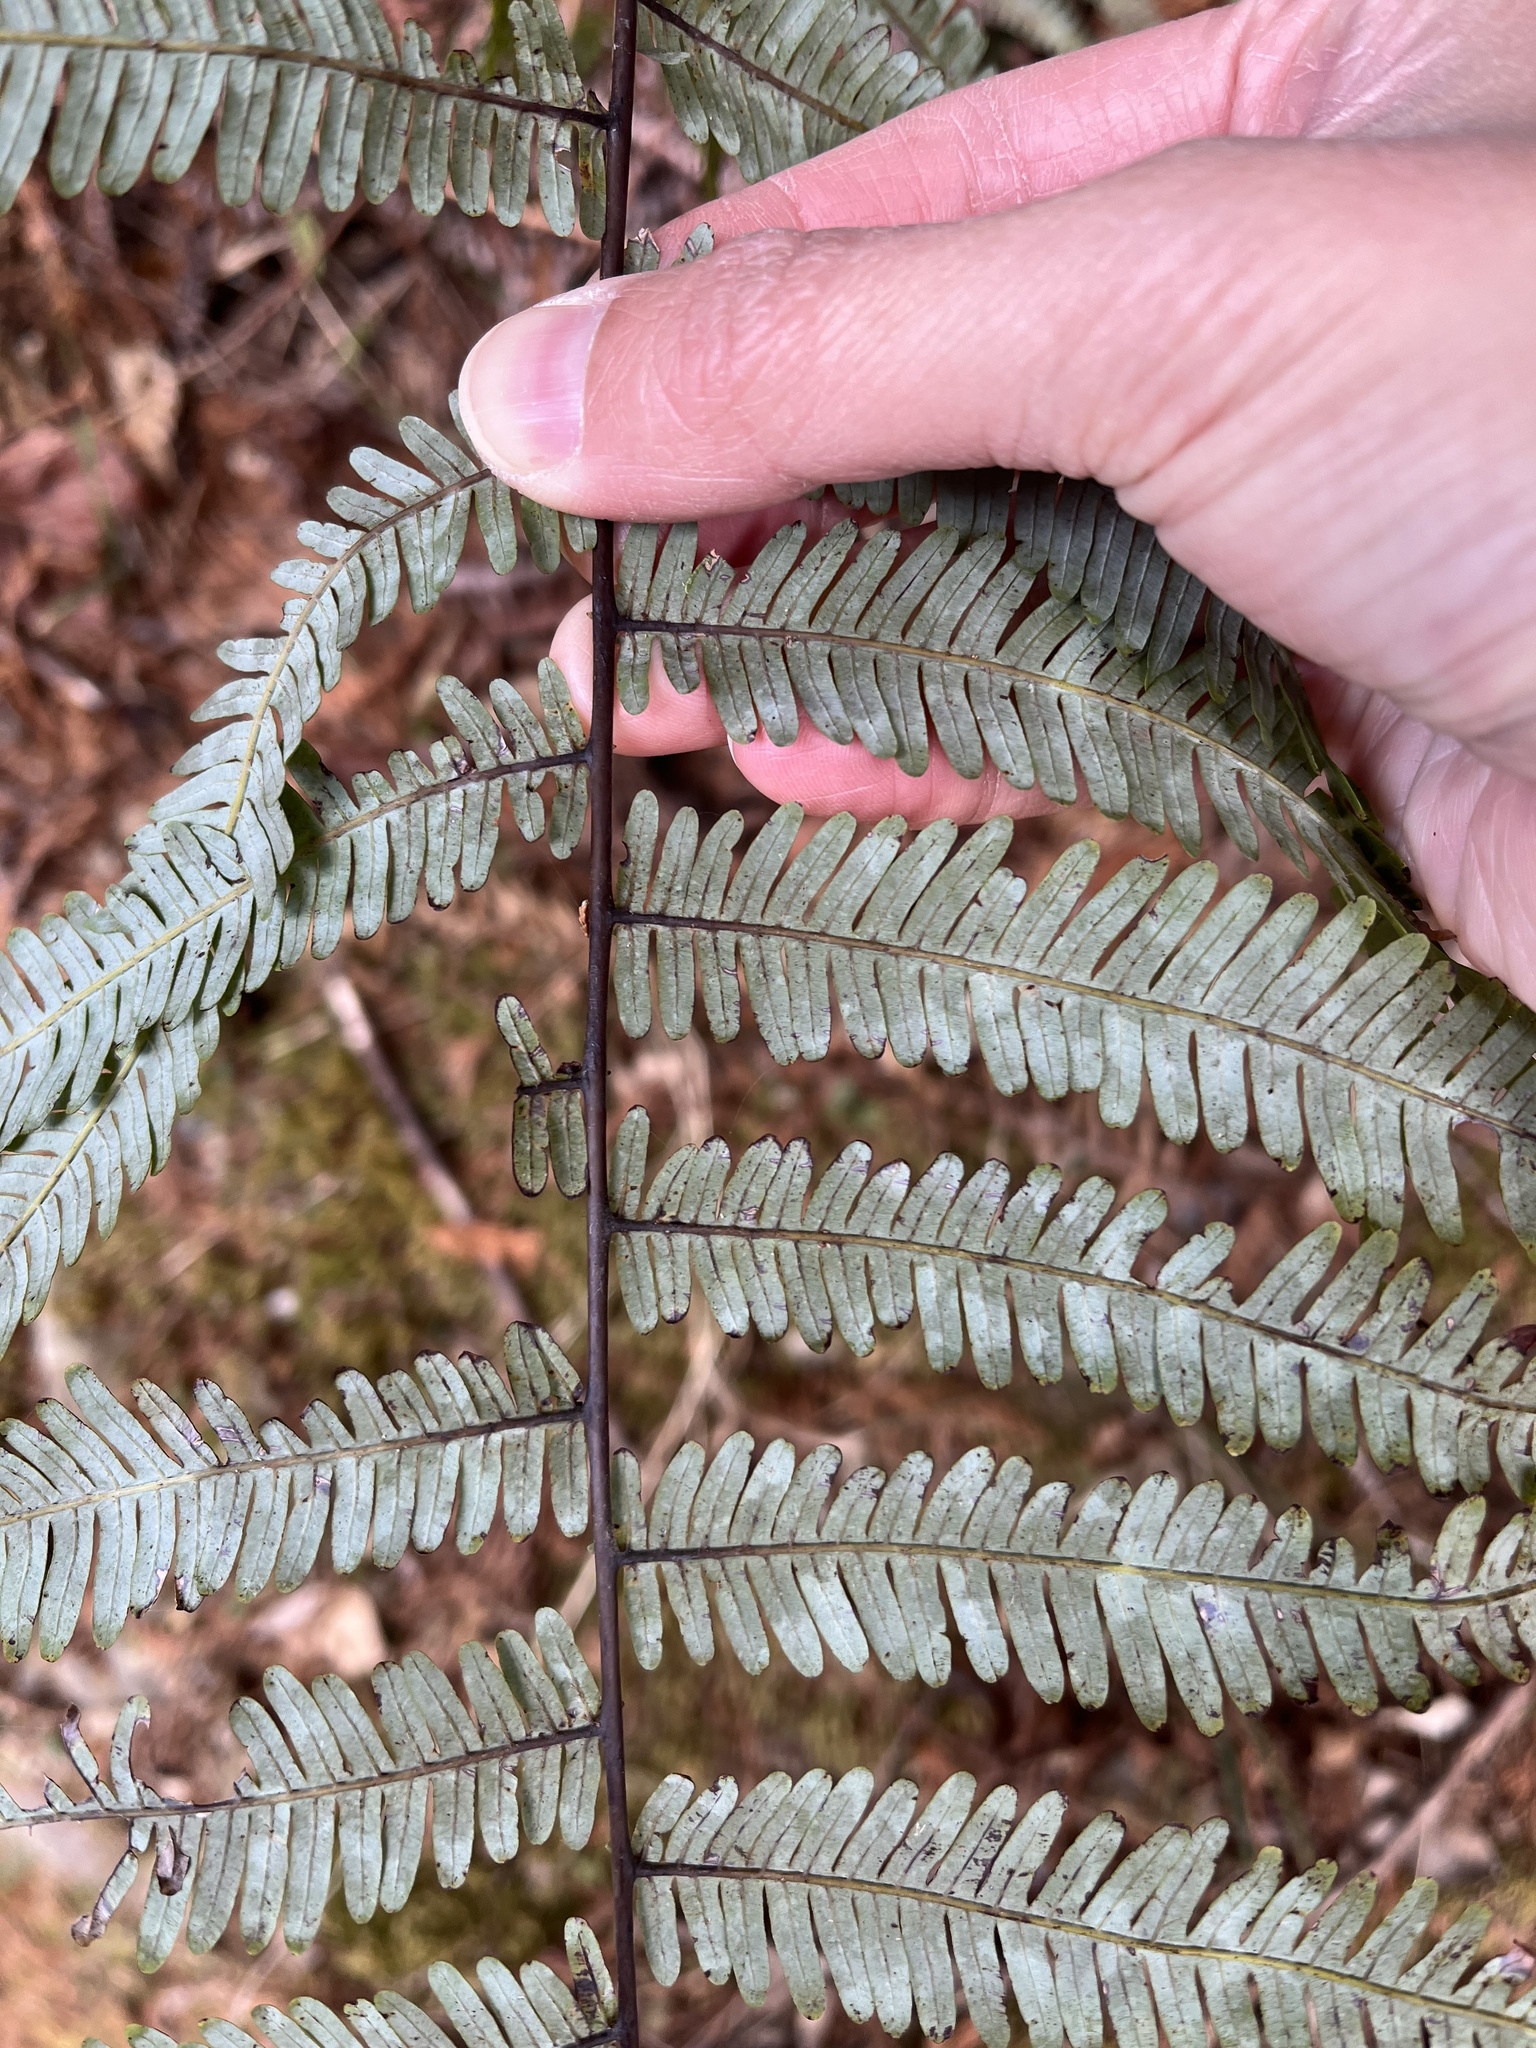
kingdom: Plantae
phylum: Tracheophyta
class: Polypodiopsida
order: Gleicheniales
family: Gleicheniaceae
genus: Diplopterygium
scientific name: Diplopterygium glaucum
